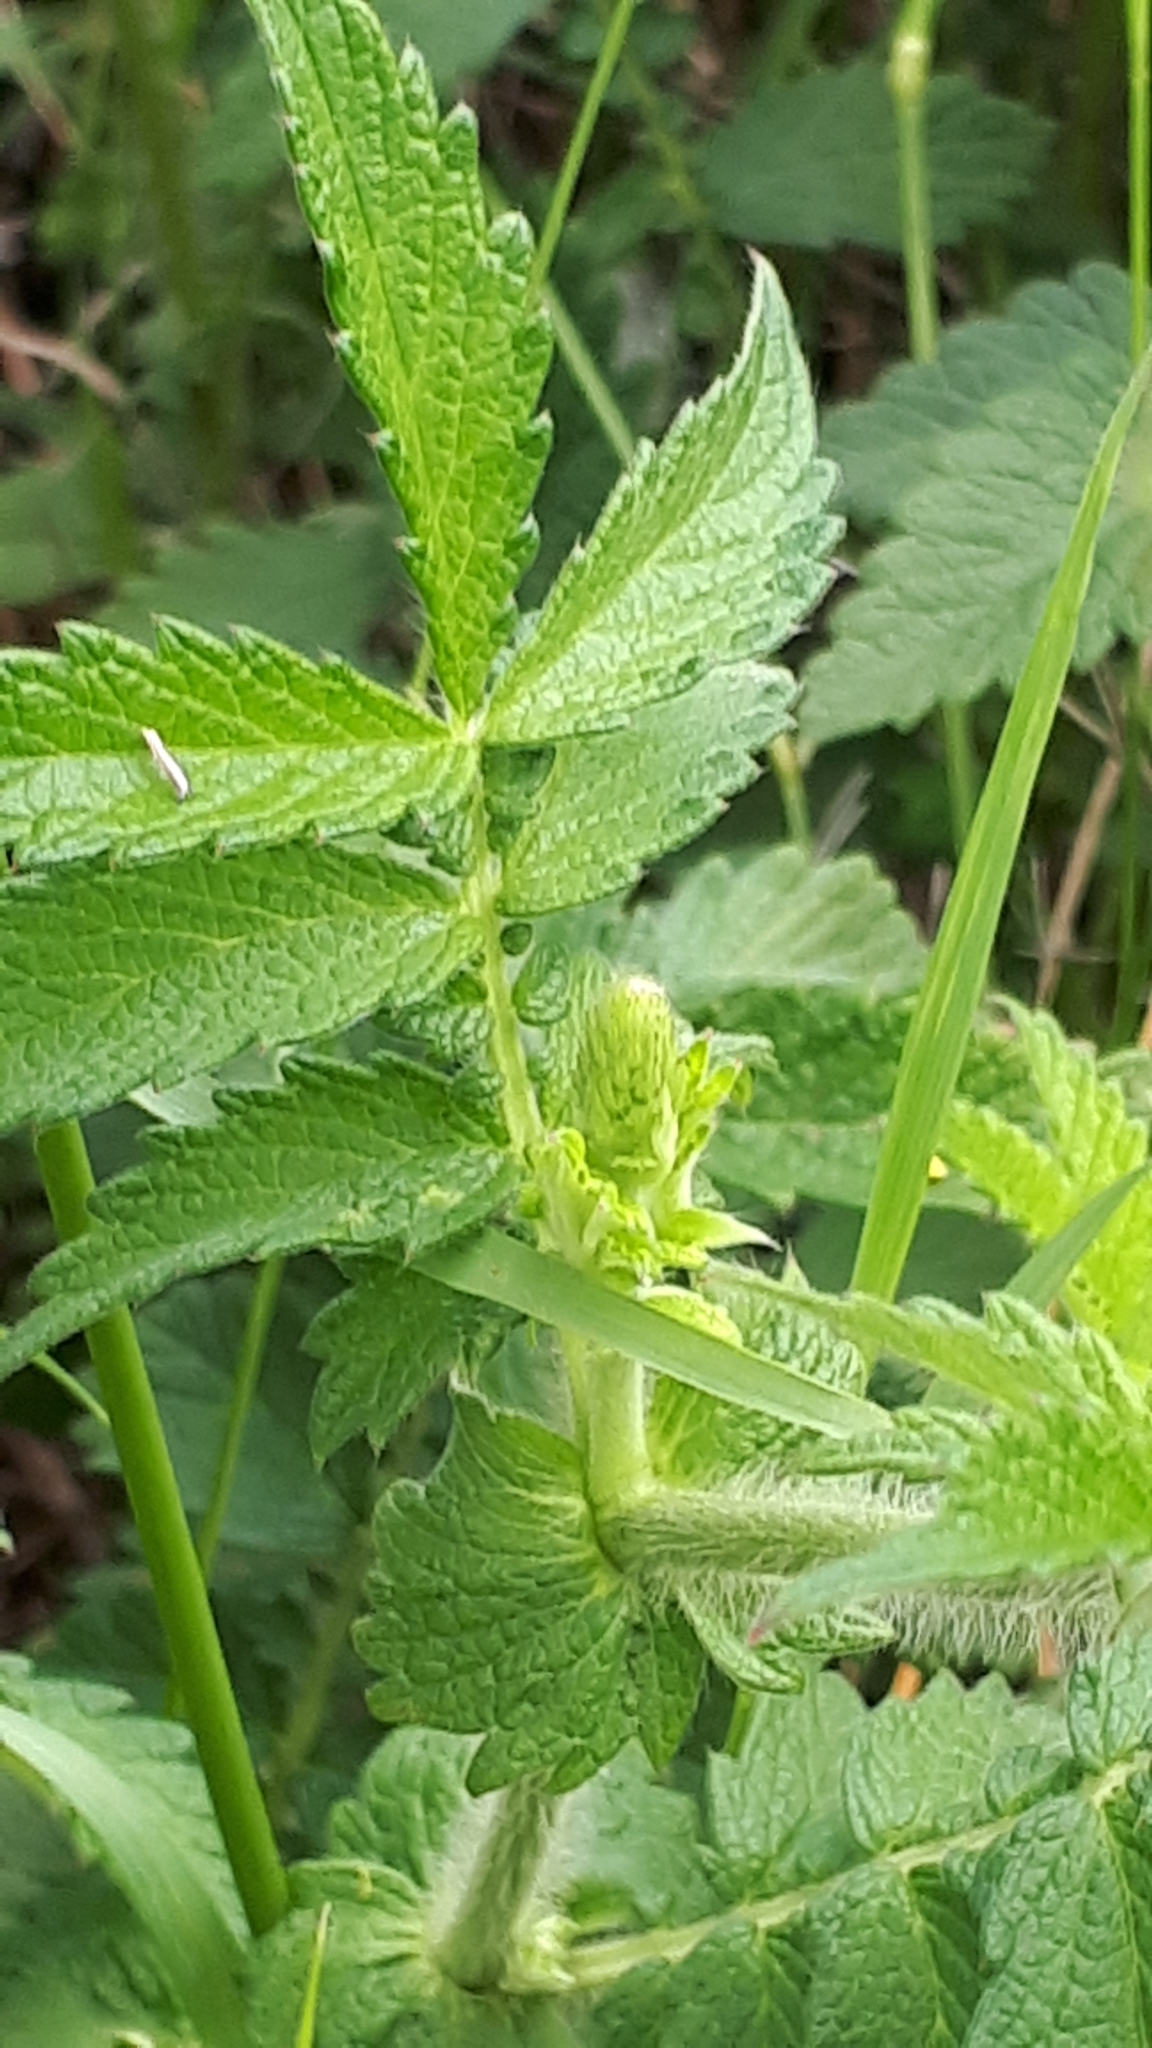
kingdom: Plantae
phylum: Tracheophyta
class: Magnoliopsida
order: Rosales
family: Rosaceae
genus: Agrimonia
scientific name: Agrimonia eupatoria
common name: Agrimony
